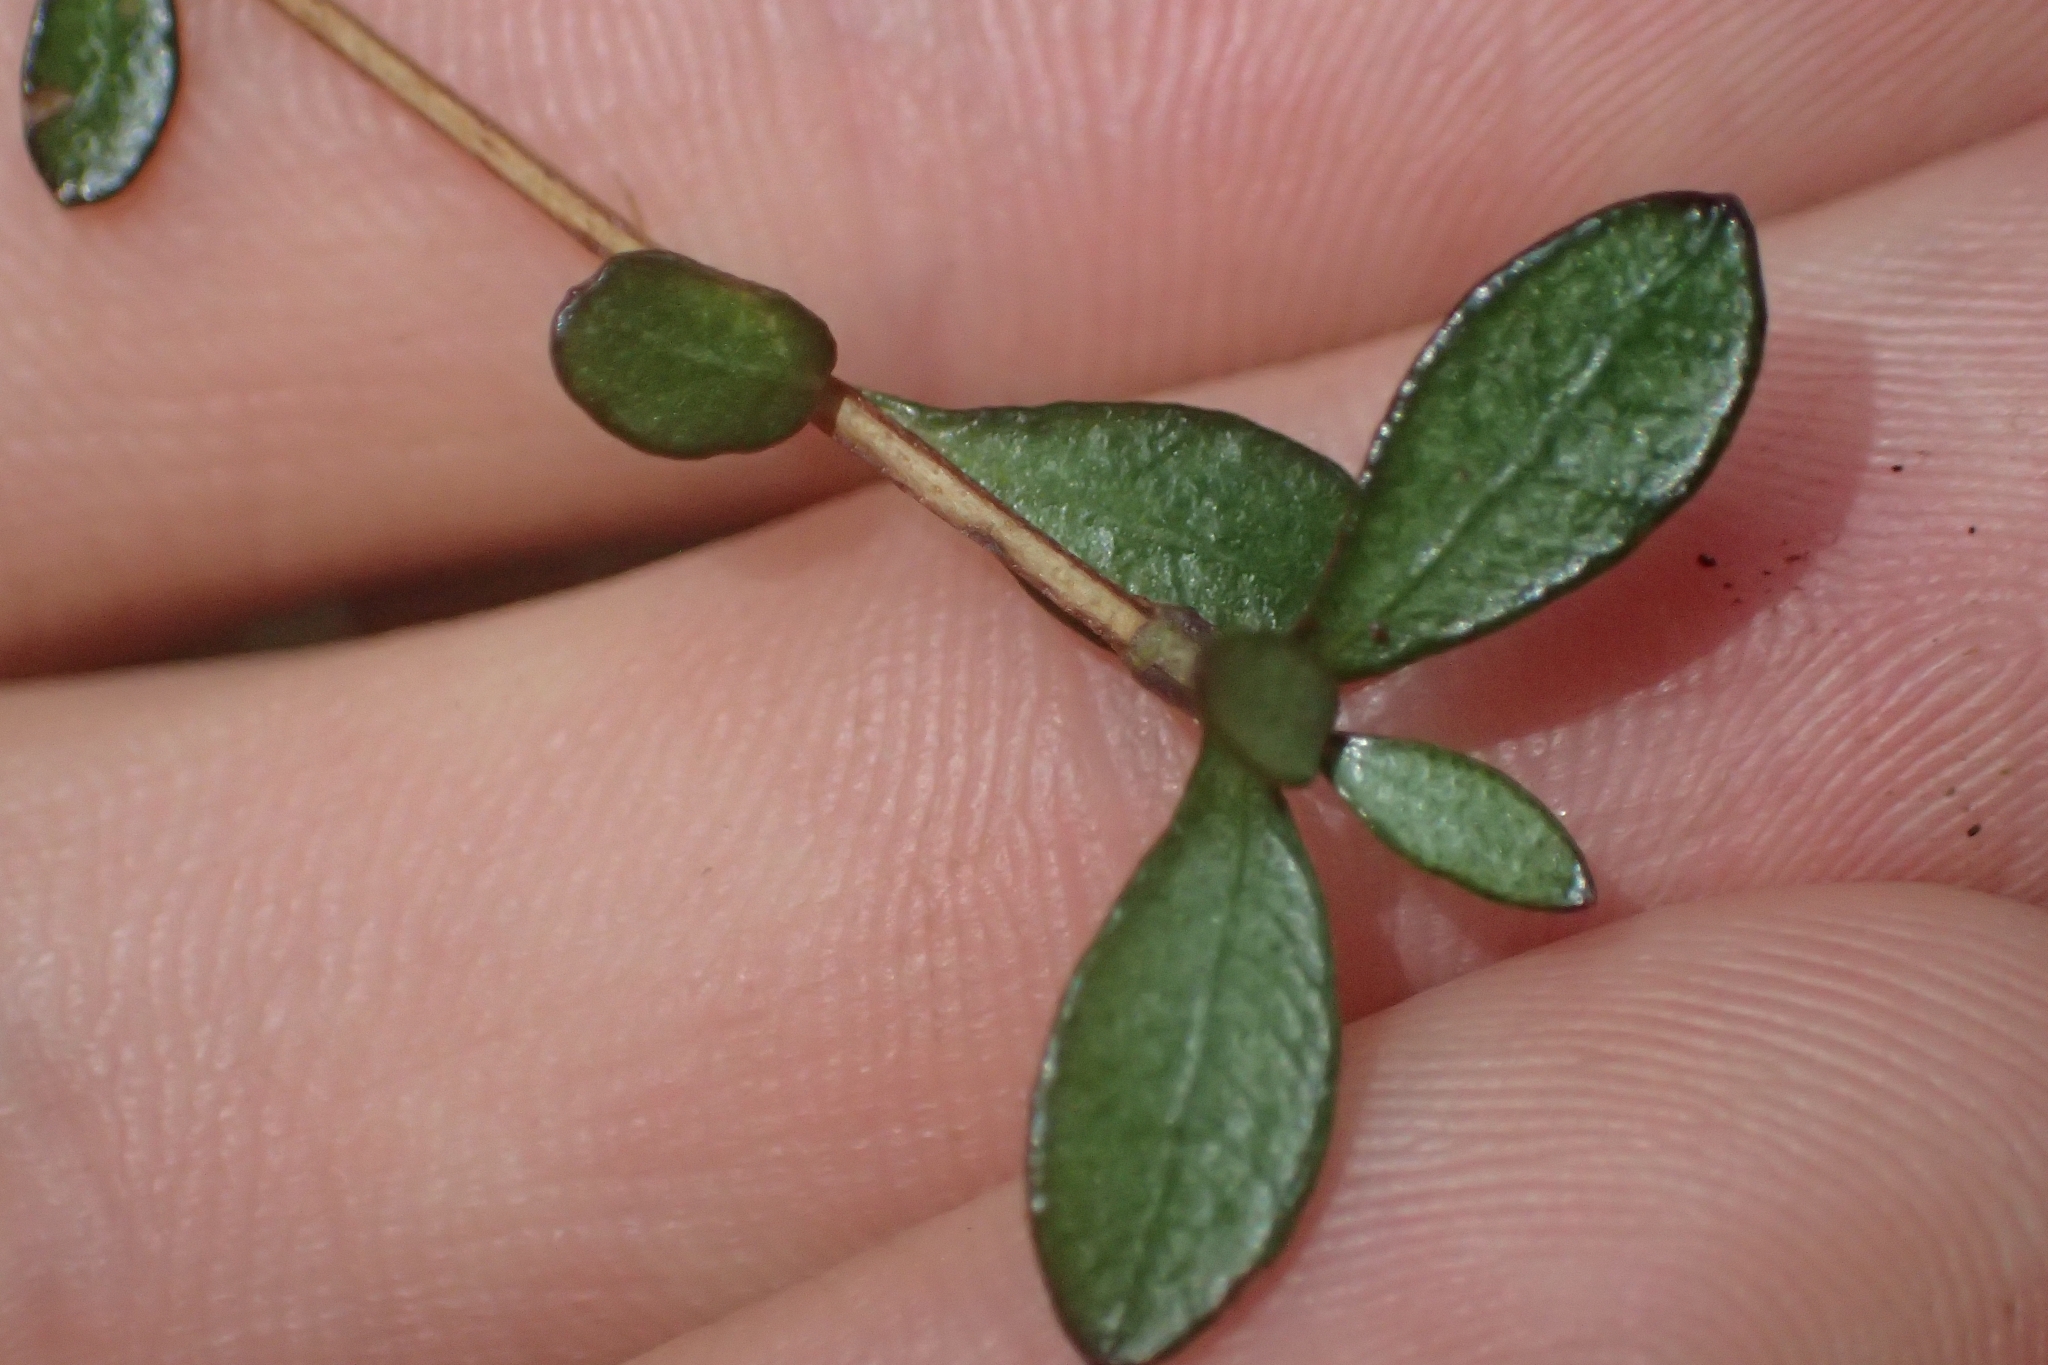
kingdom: Plantae
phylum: Tracheophyta
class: Magnoliopsida
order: Myrtales
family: Myrtaceae
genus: Neomyrtus
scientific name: Neomyrtus pedunculata
